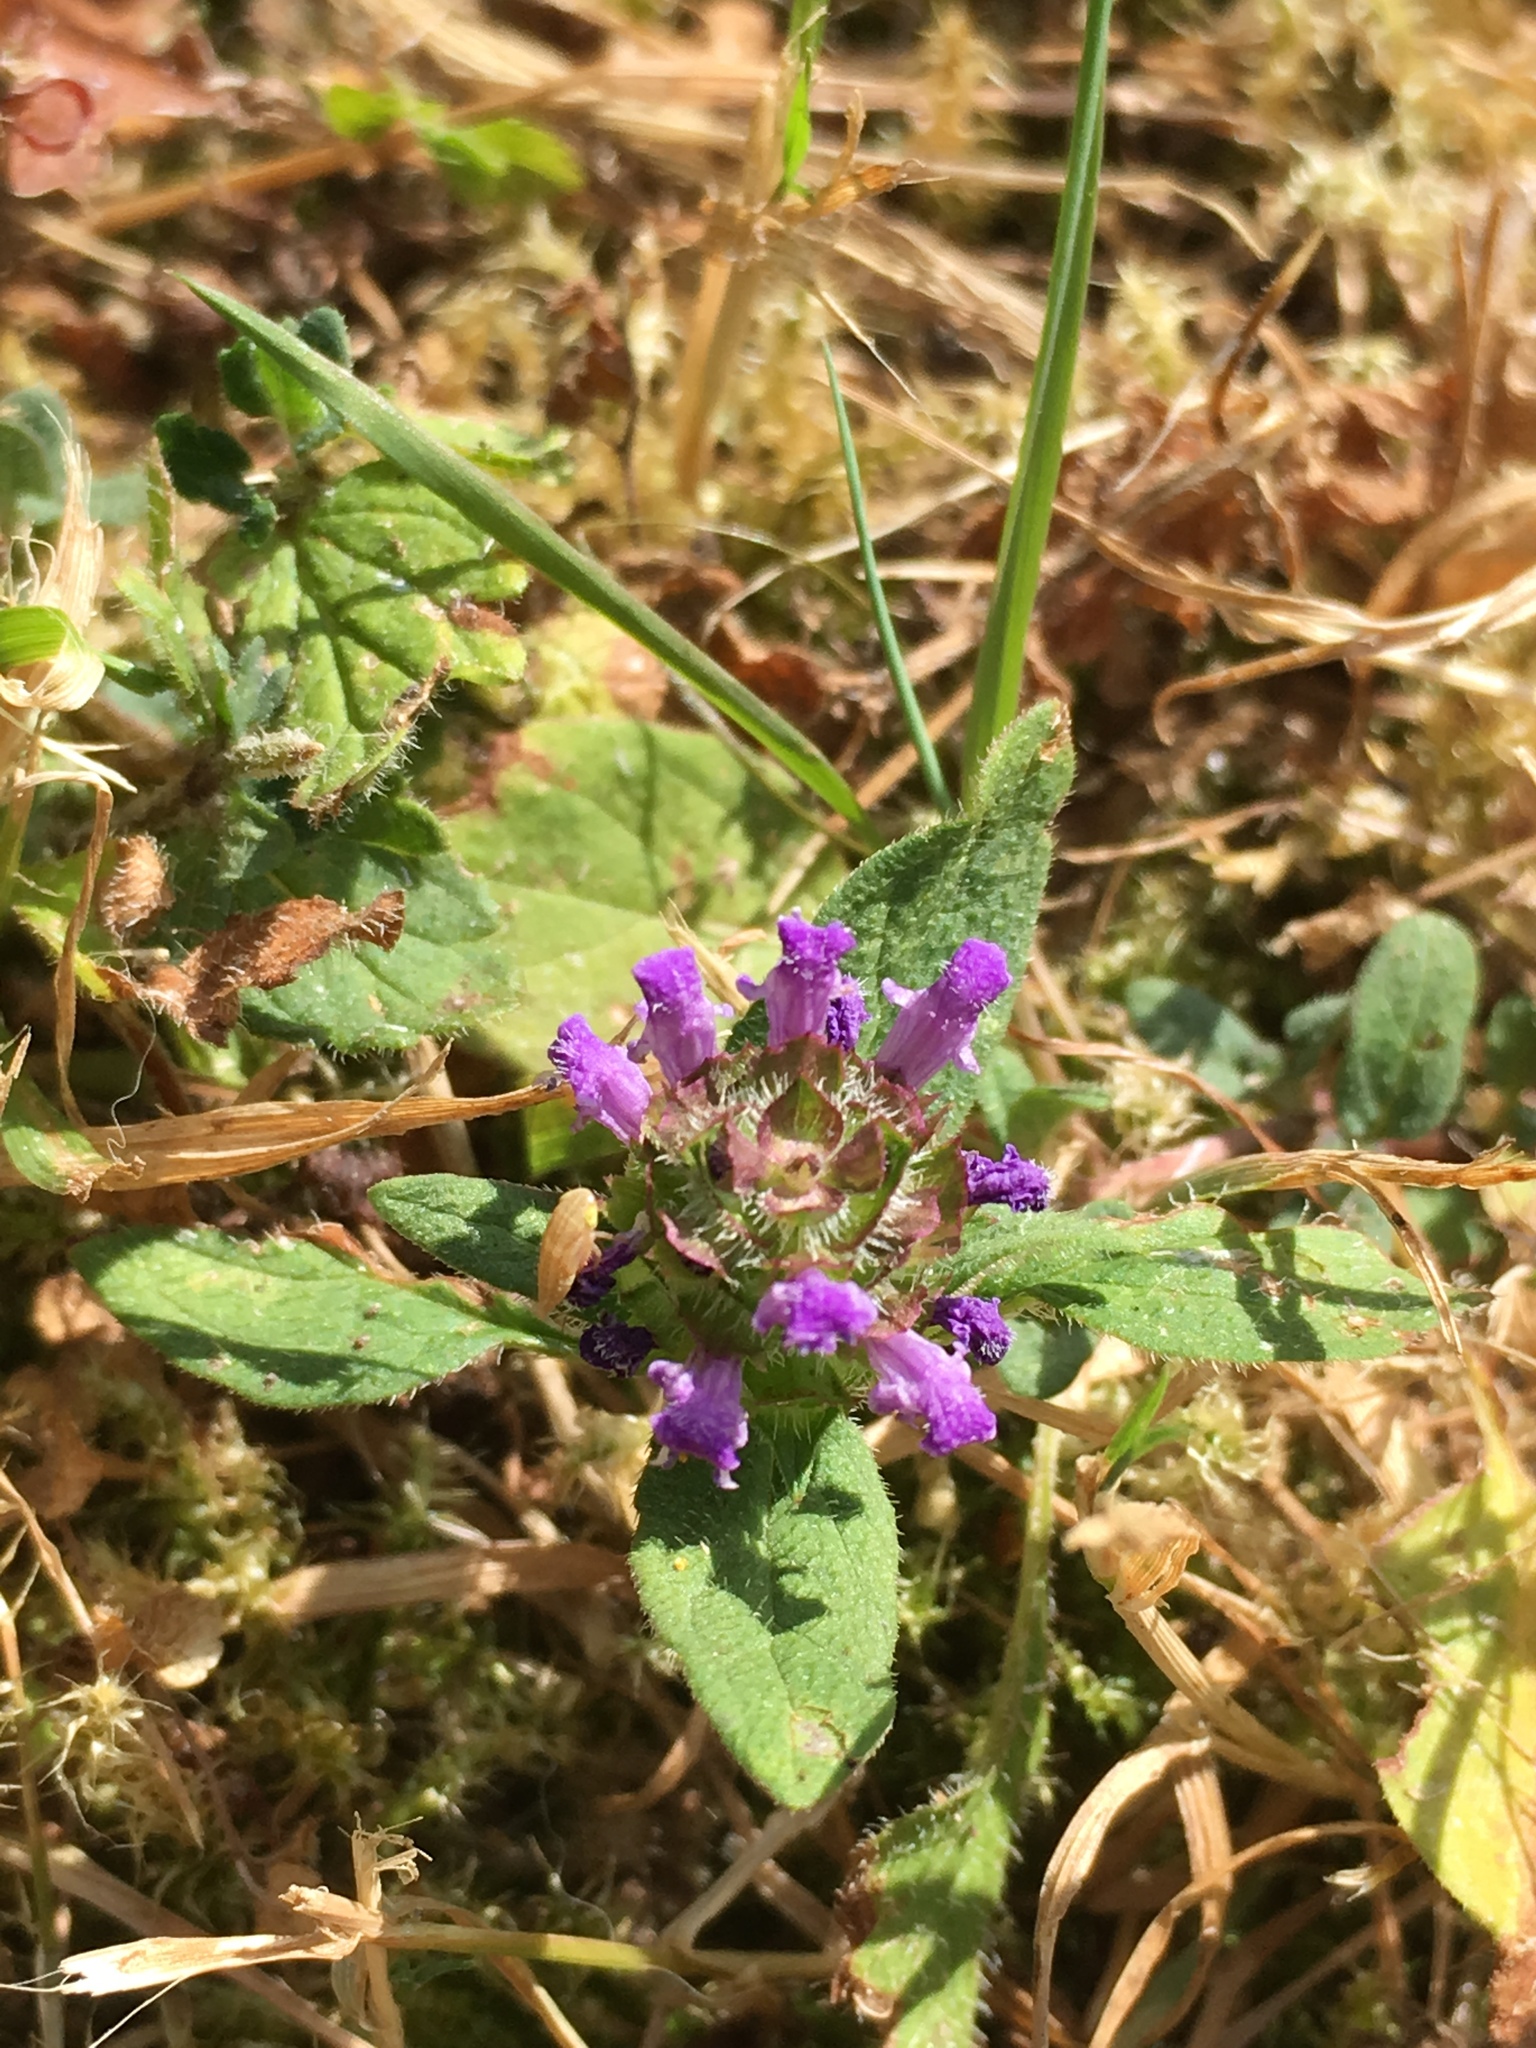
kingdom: Plantae
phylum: Tracheophyta
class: Magnoliopsida
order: Lamiales
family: Lamiaceae
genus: Prunella
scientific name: Prunella vulgaris
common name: Heal-all
